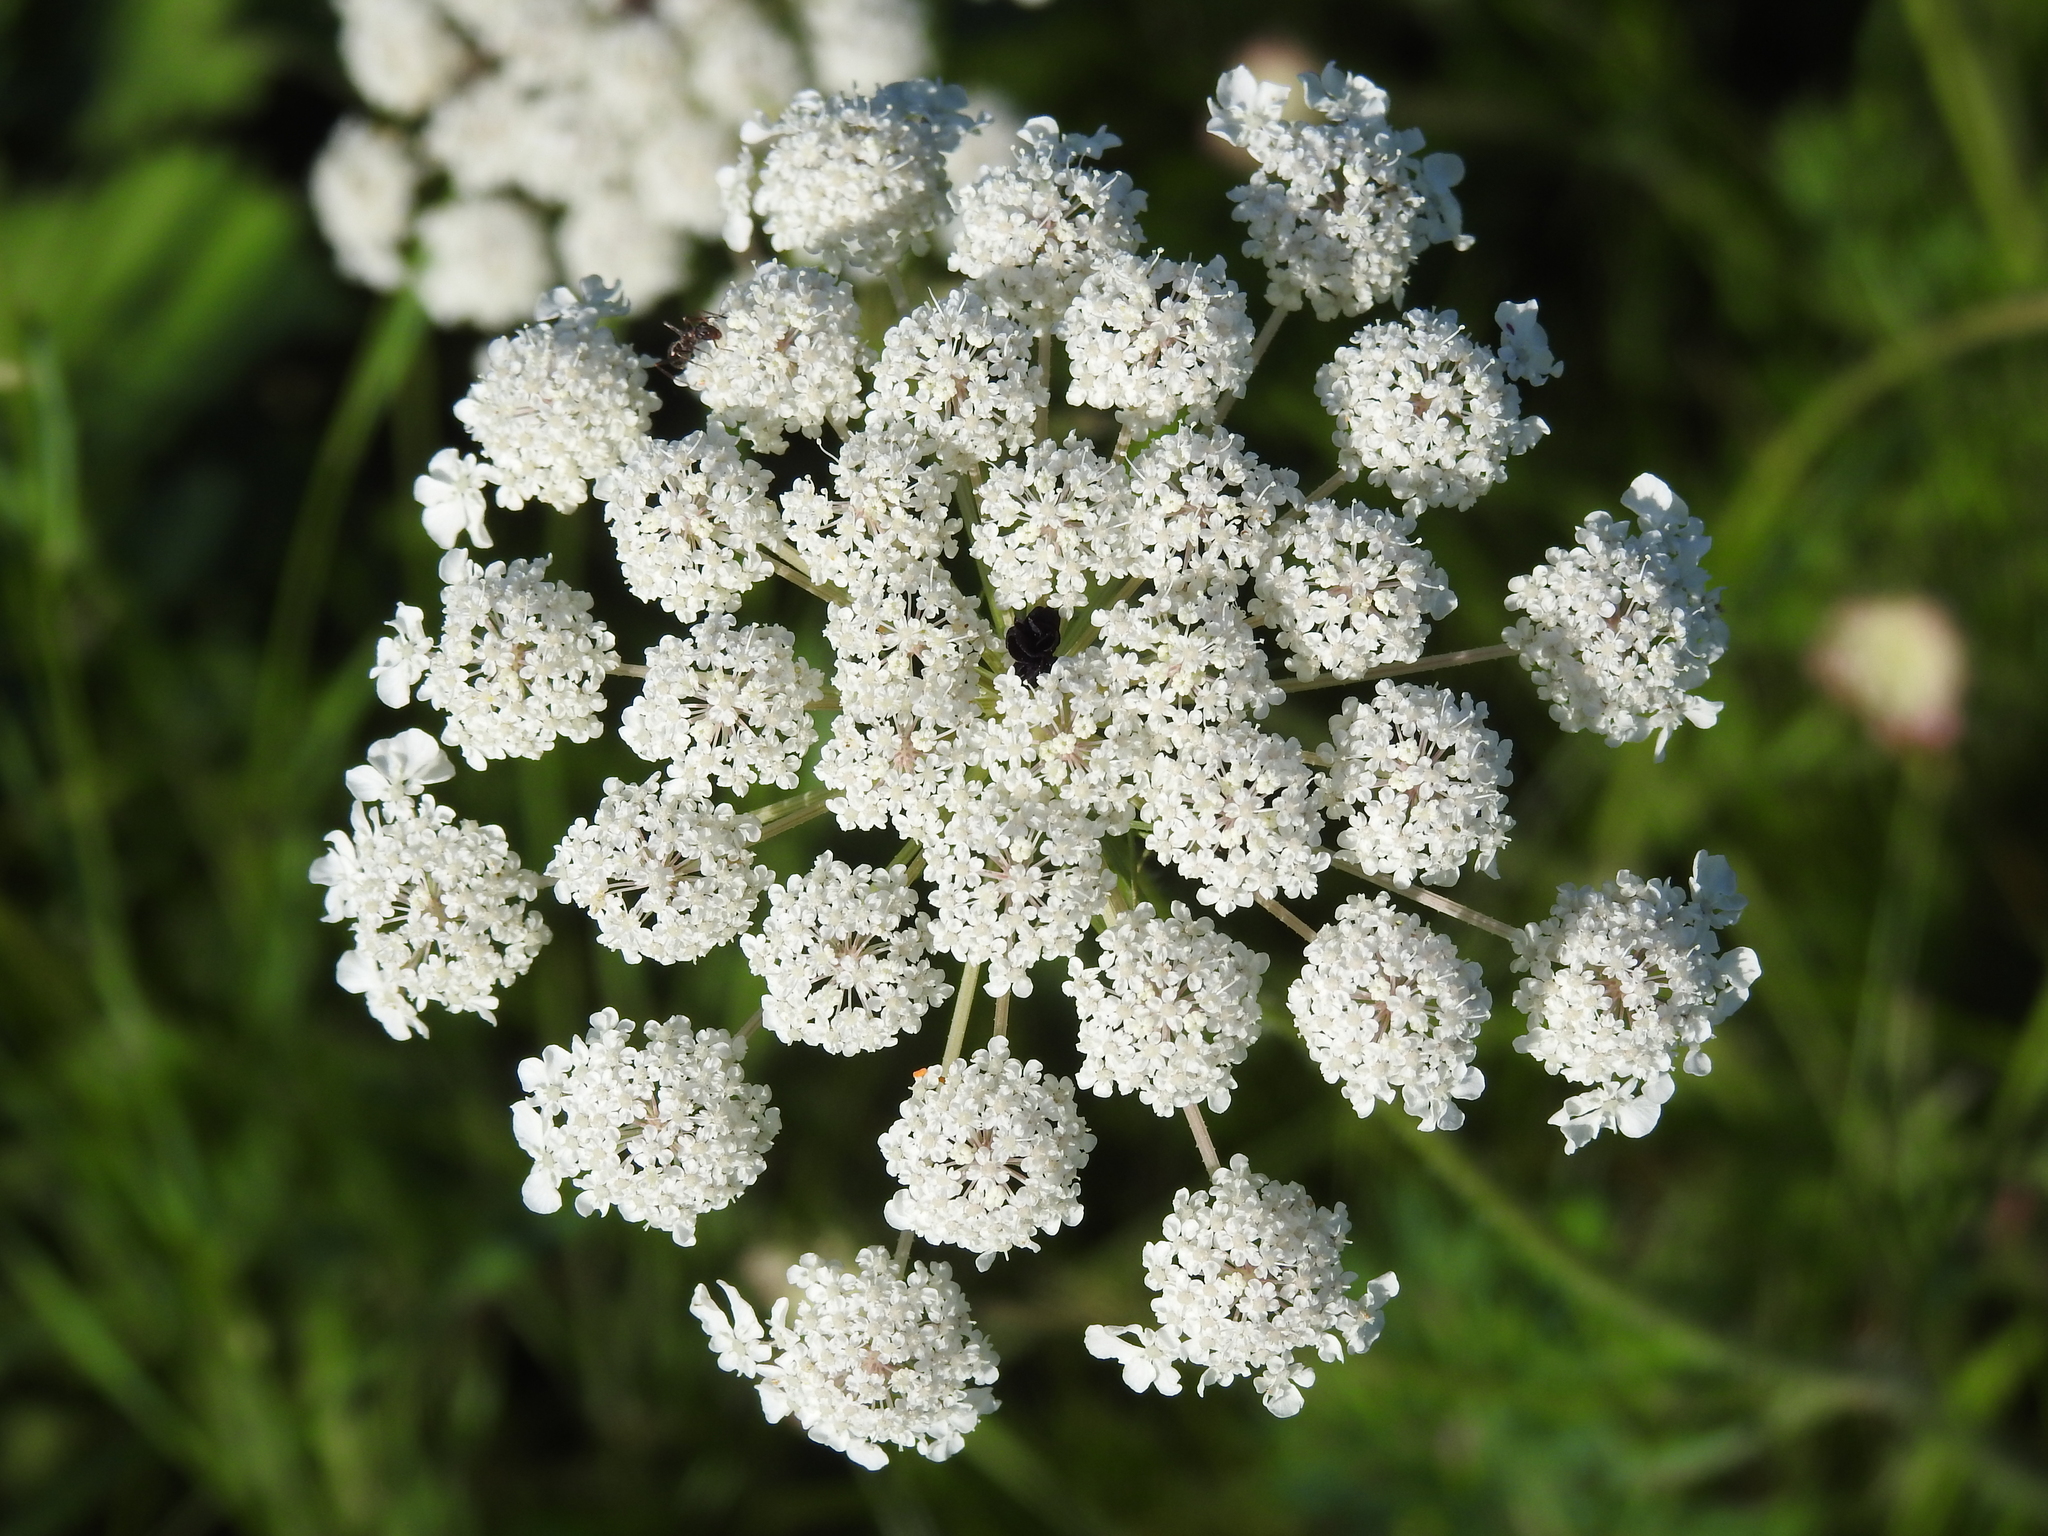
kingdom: Plantae
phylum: Tracheophyta
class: Magnoliopsida
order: Apiales
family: Apiaceae
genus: Daucus
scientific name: Daucus carota
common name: Wild carrot
